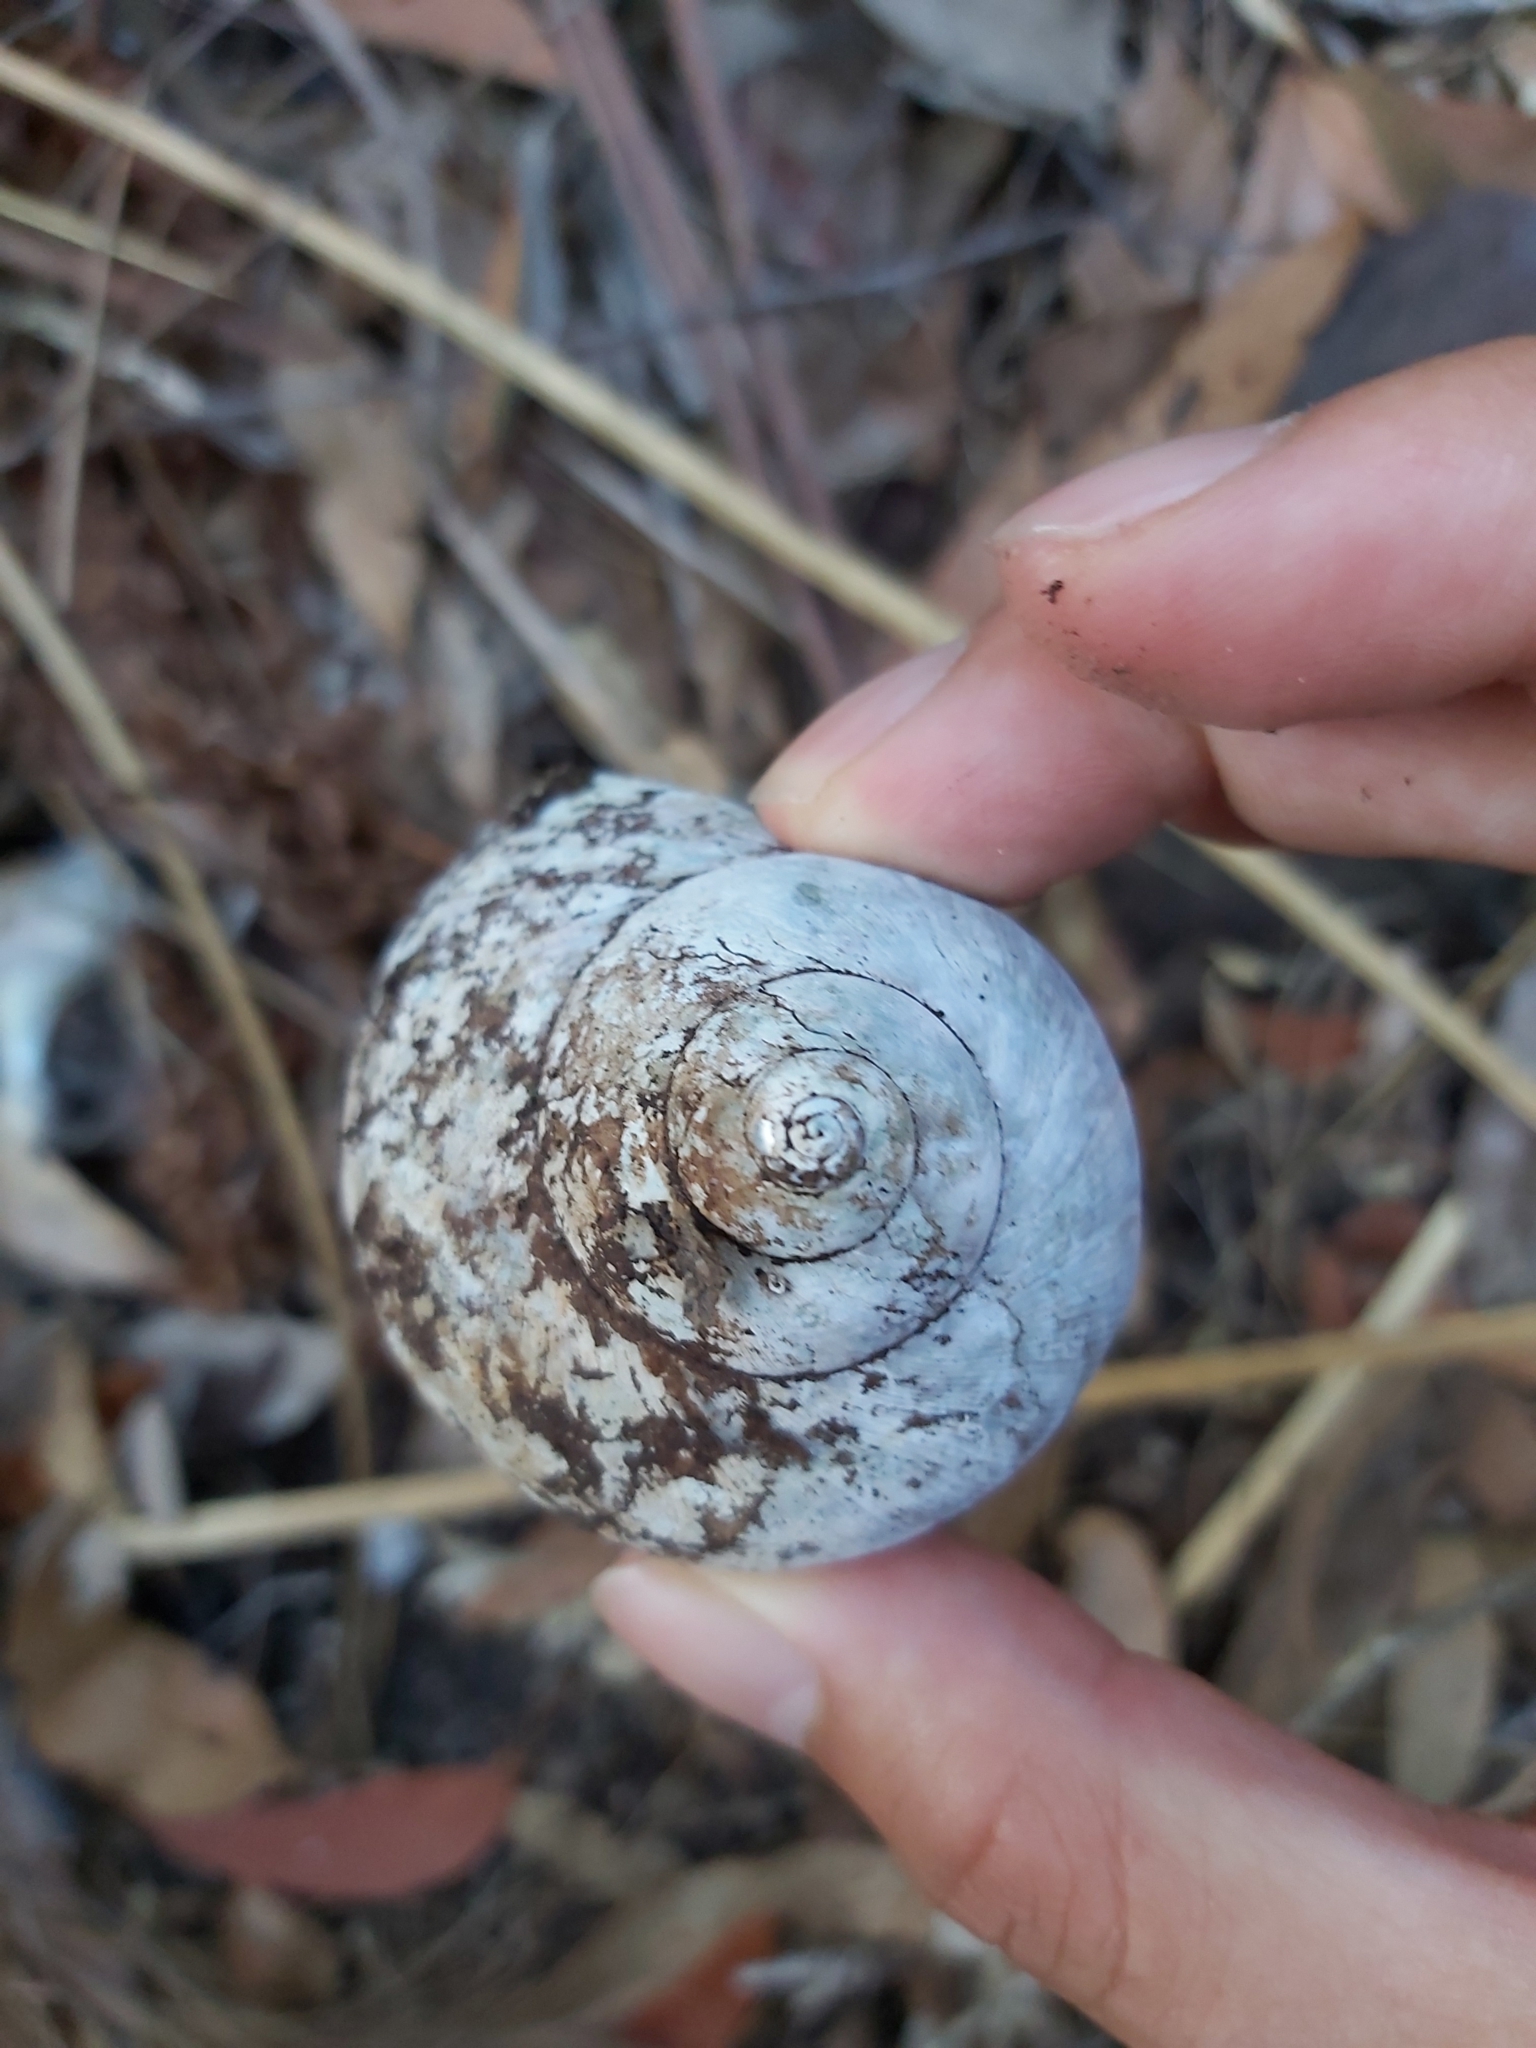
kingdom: Animalia
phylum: Mollusca
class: Gastropoda
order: Trochida
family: Turbinidae
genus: Turbo
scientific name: Turbo militaris
